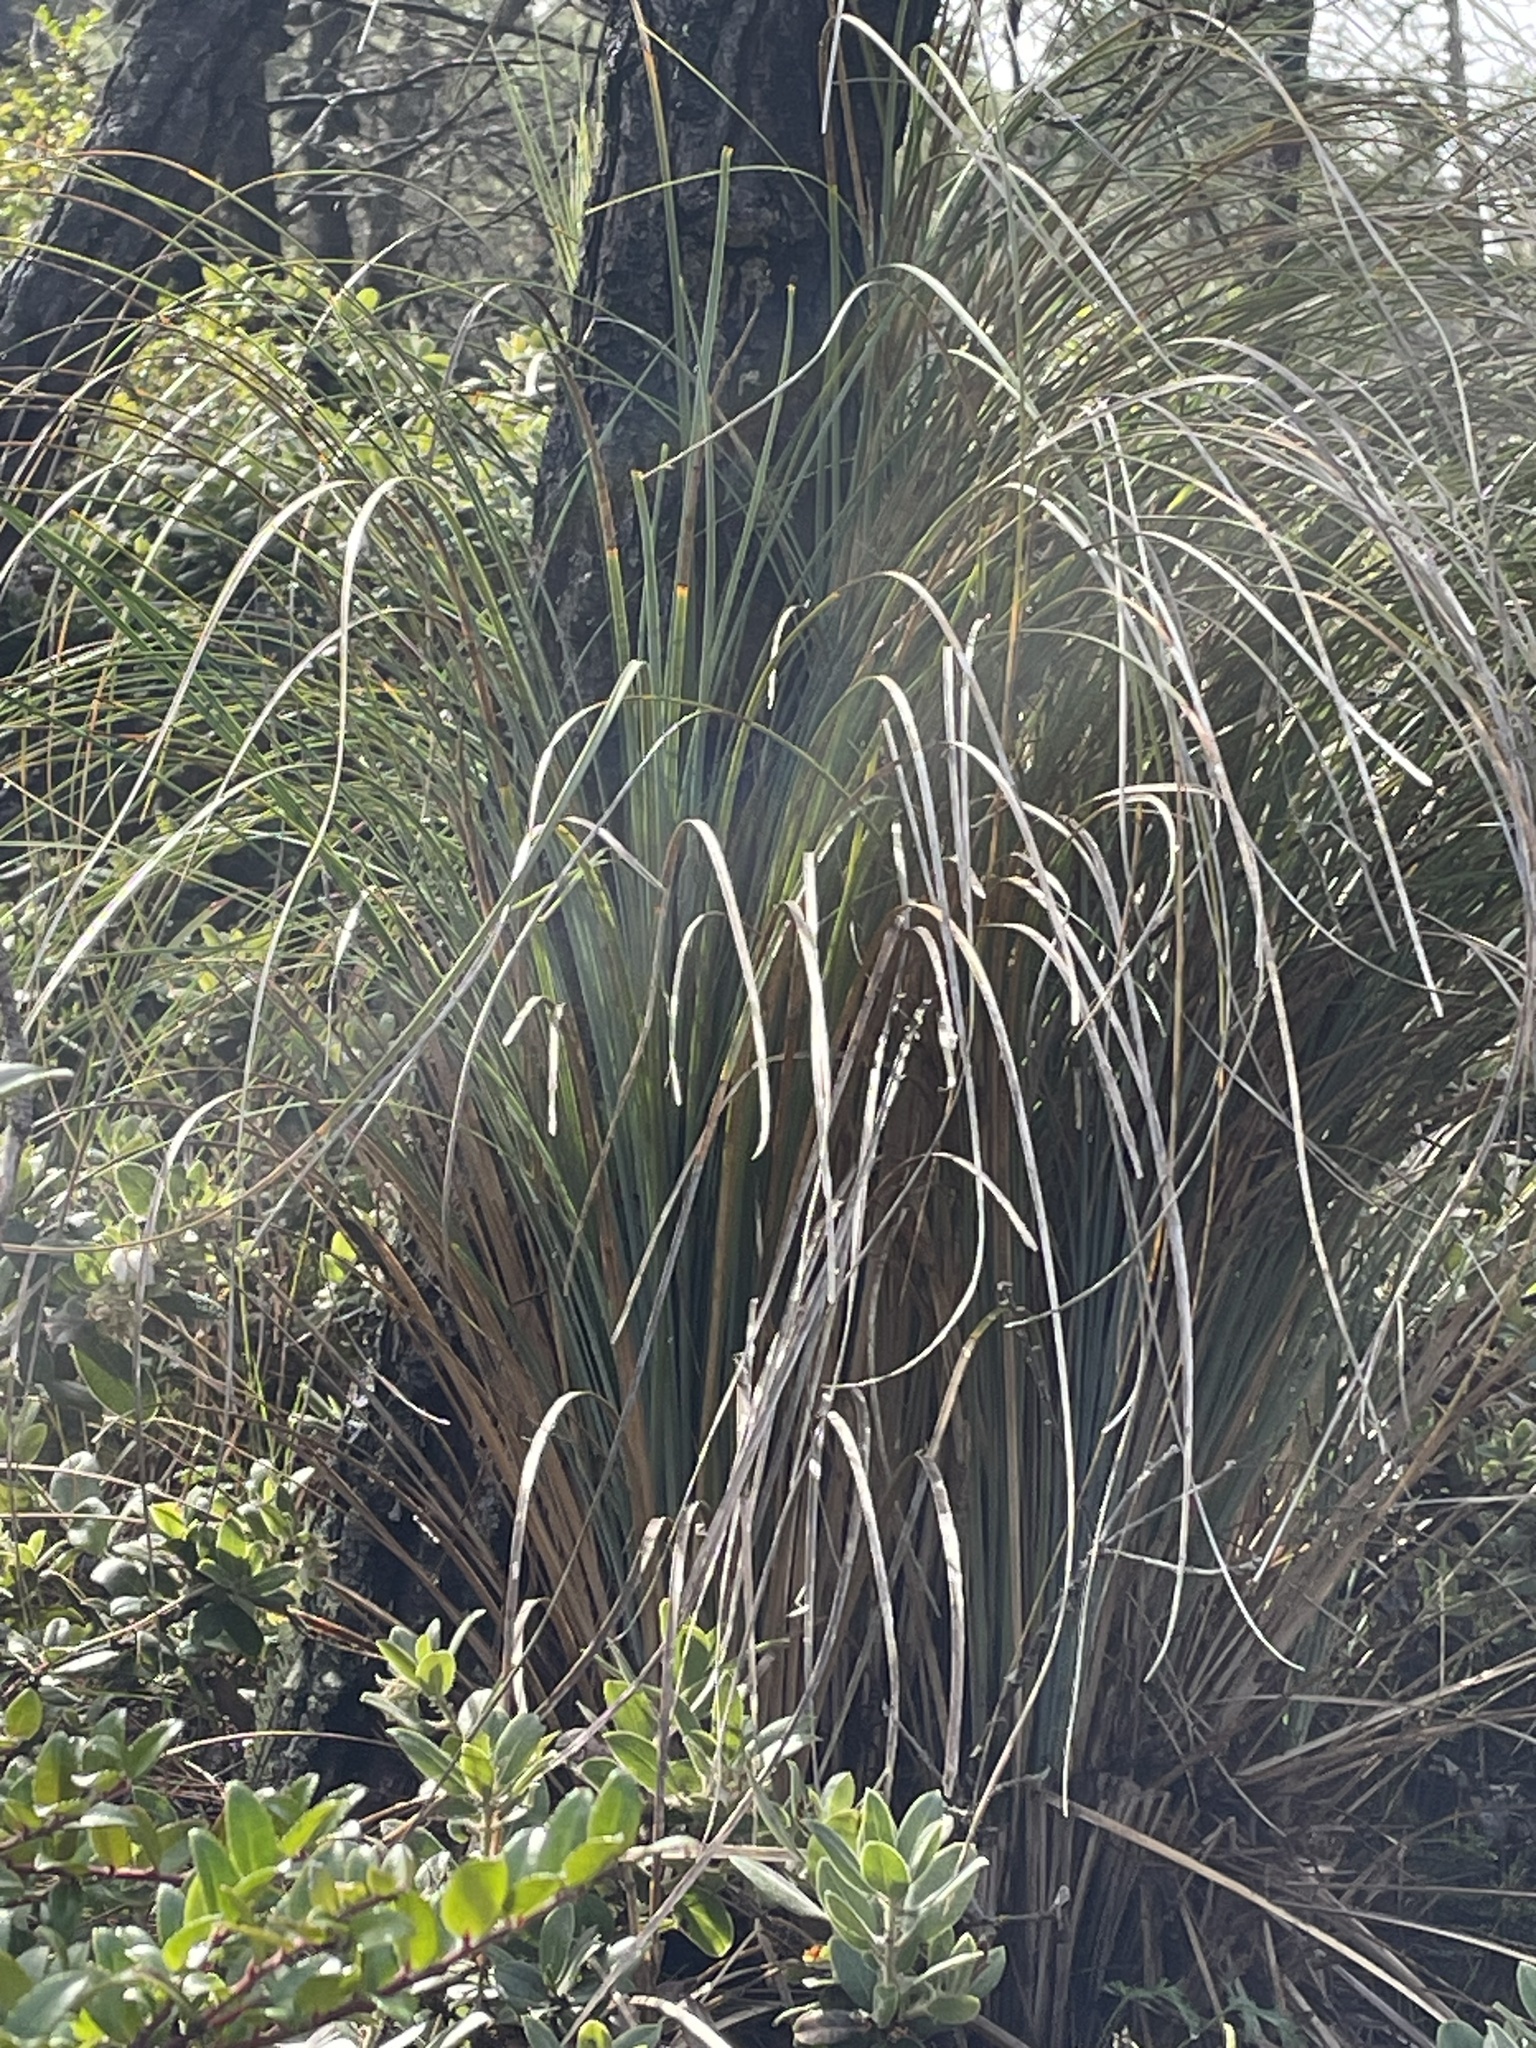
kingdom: Plantae
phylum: Tracheophyta
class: Liliopsida
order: Liliales
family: Melanthiaceae
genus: Xerophyllum
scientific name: Xerophyllum tenax
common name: Bear-grass
